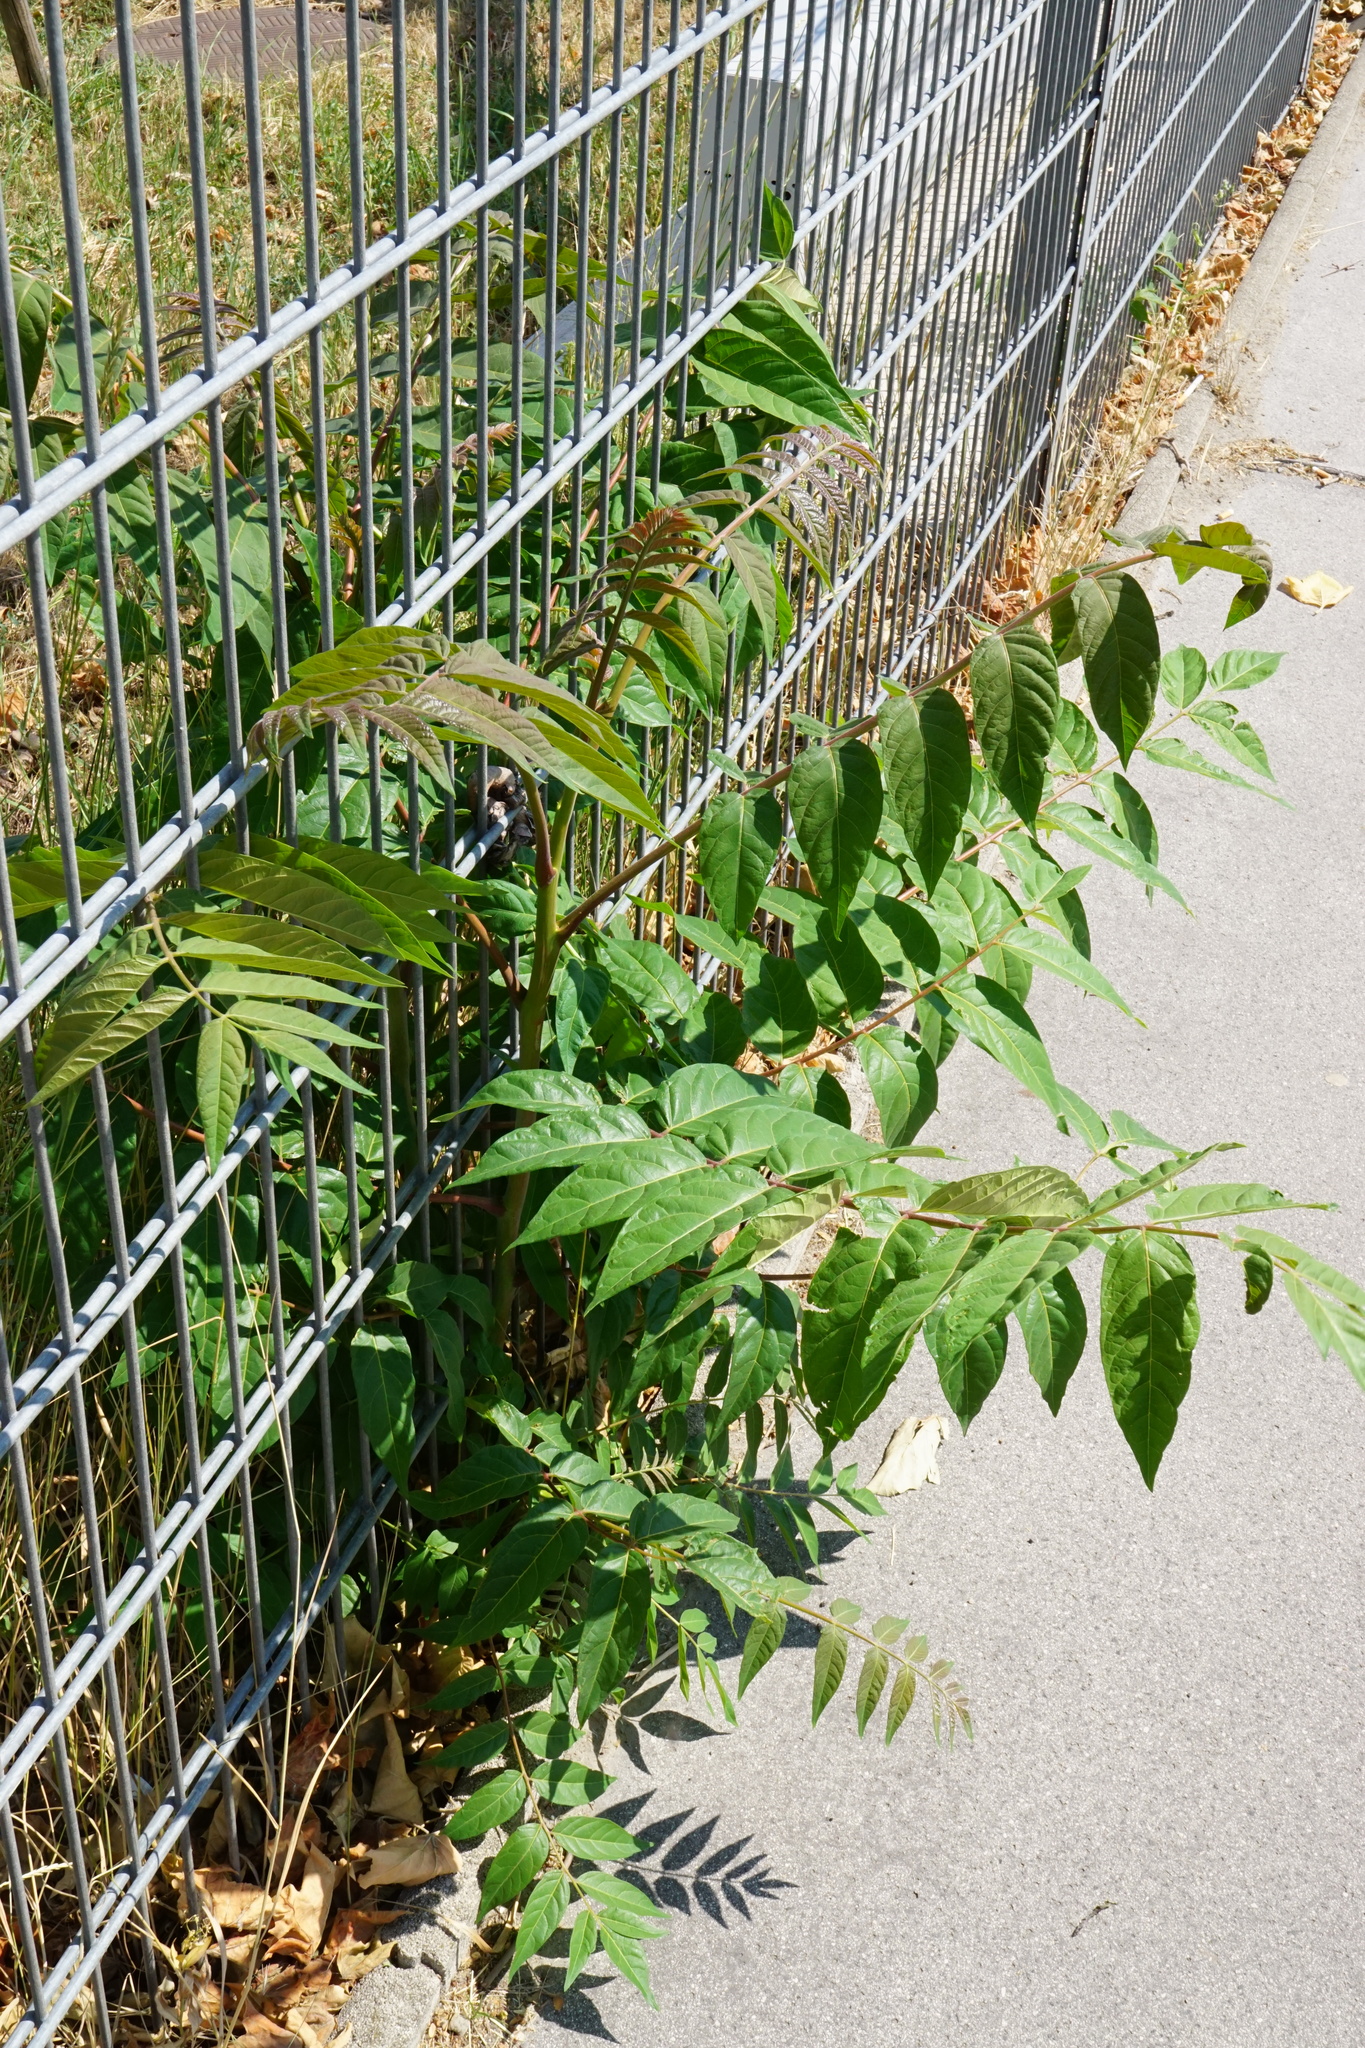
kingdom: Plantae
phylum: Tracheophyta
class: Magnoliopsida
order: Sapindales
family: Simaroubaceae
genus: Ailanthus
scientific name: Ailanthus altissima
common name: Tree-of-heaven
